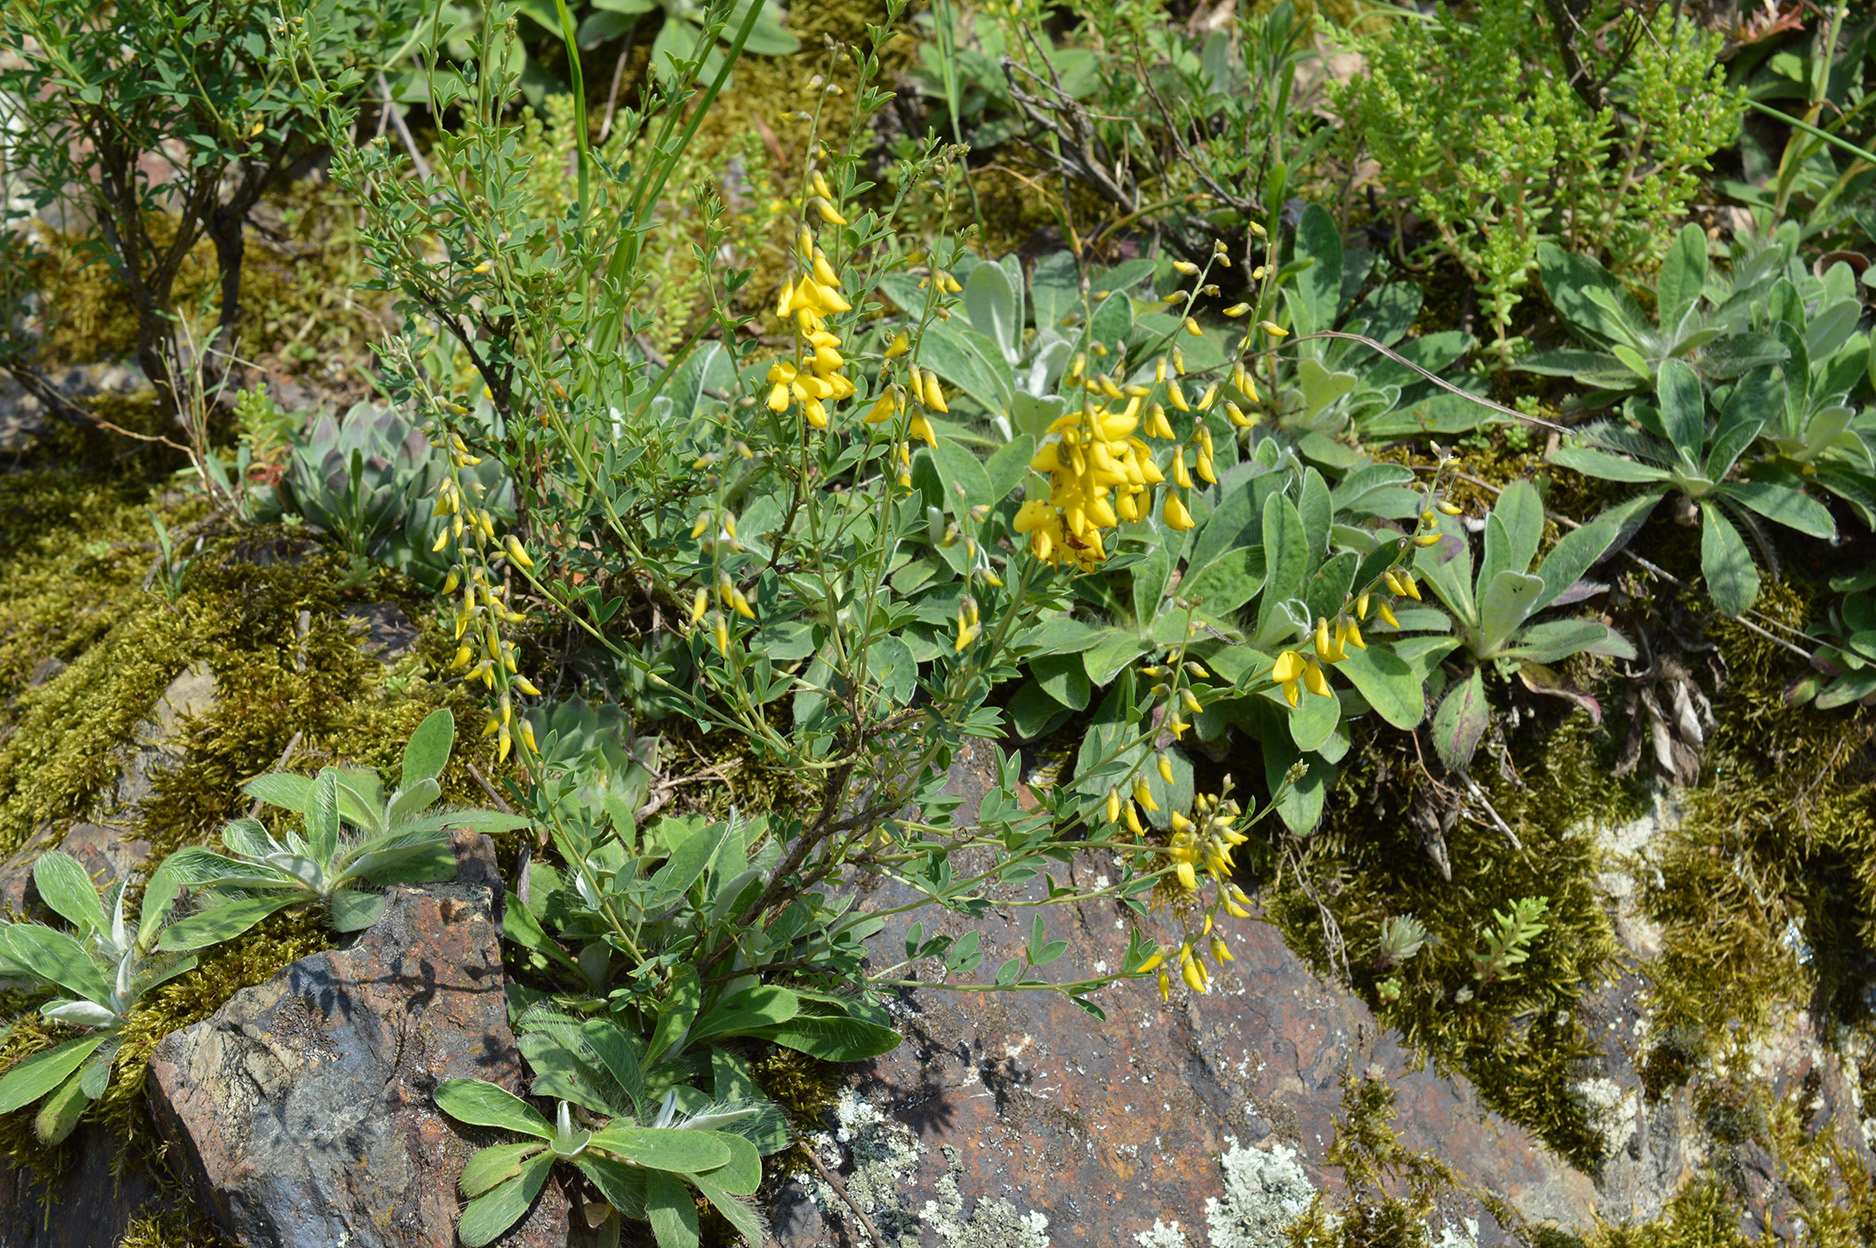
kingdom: Plantae
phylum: Tracheophyta
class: Magnoliopsida
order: Fabales
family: Fabaceae
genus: Cytisus
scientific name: Cytisus nigricans
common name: Black broom
